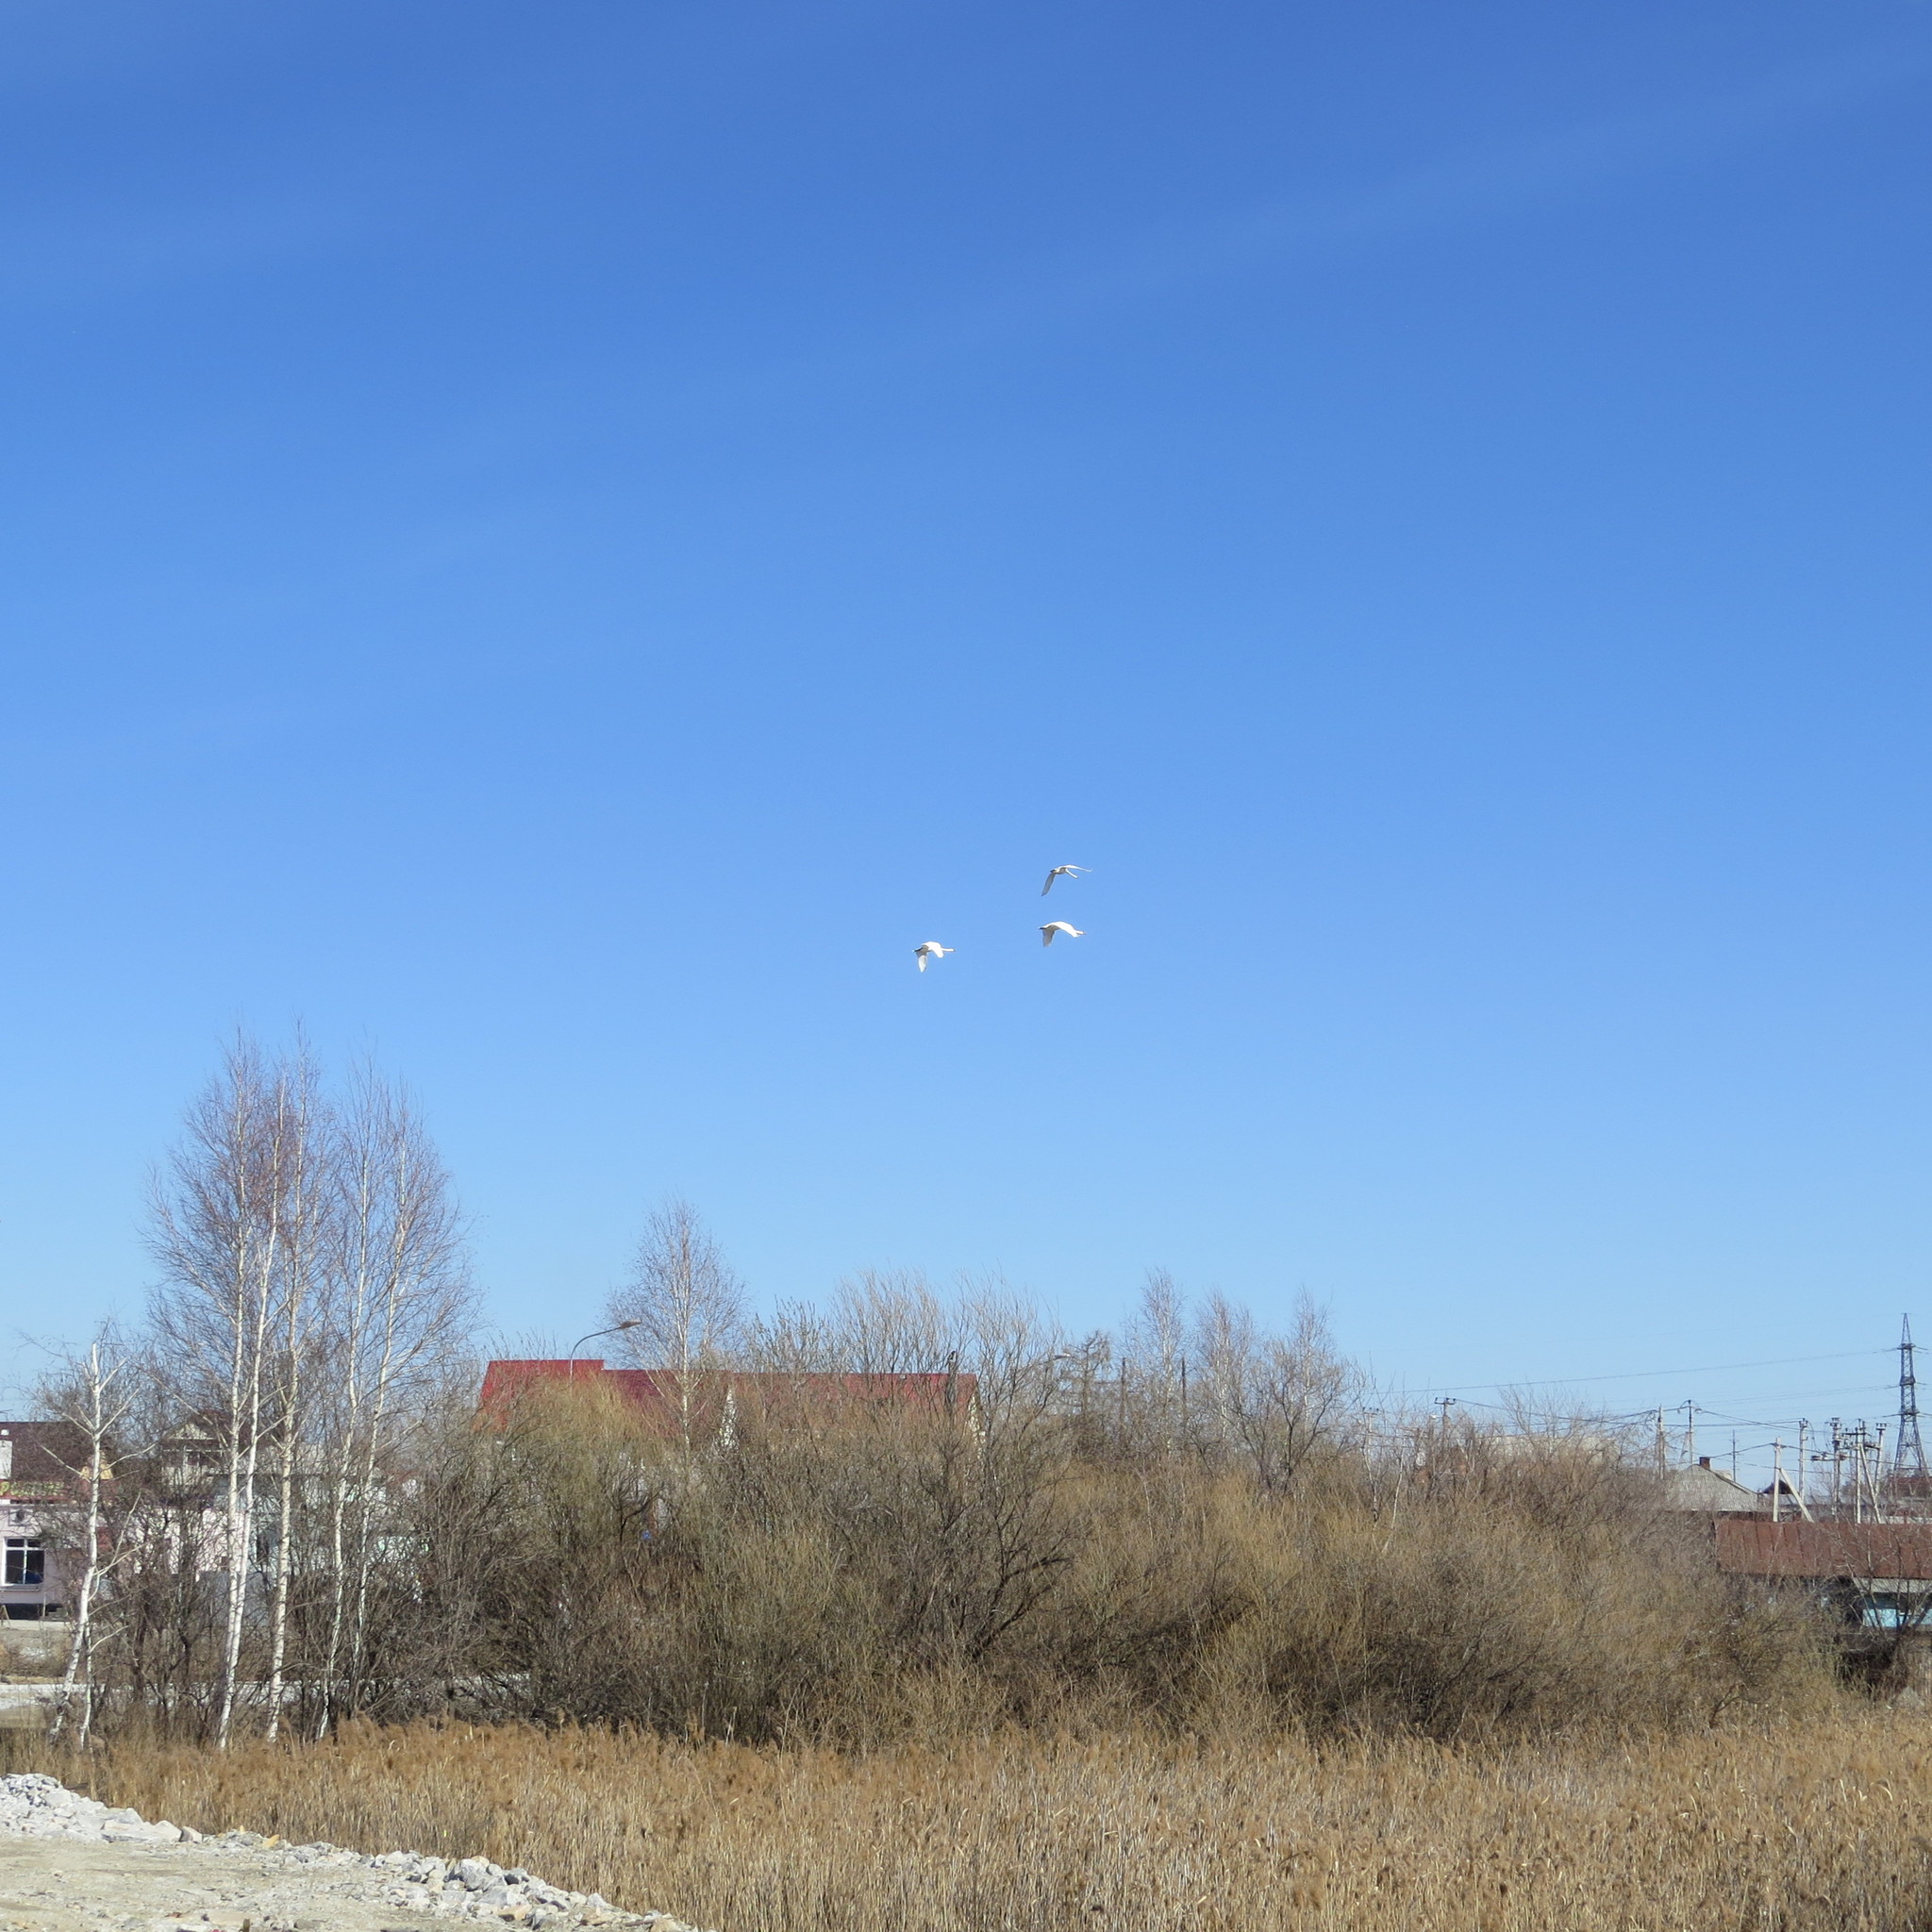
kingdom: Animalia
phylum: Chordata
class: Aves
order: Anseriformes
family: Anatidae
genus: Cygnus
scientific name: Cygnus olor
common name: Mute swan
